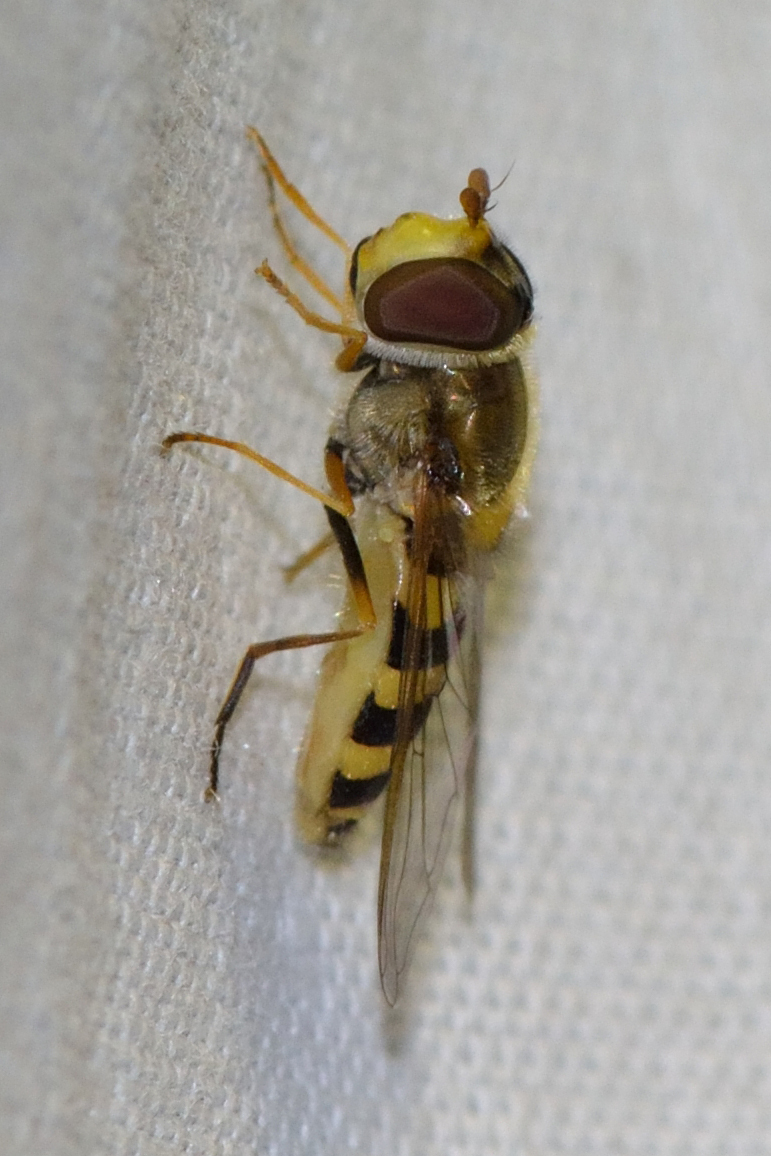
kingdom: Animalia
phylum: Arthropoda
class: Insecta
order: Diptera
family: Syrphidae
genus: Syrphus
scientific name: Syrphus
